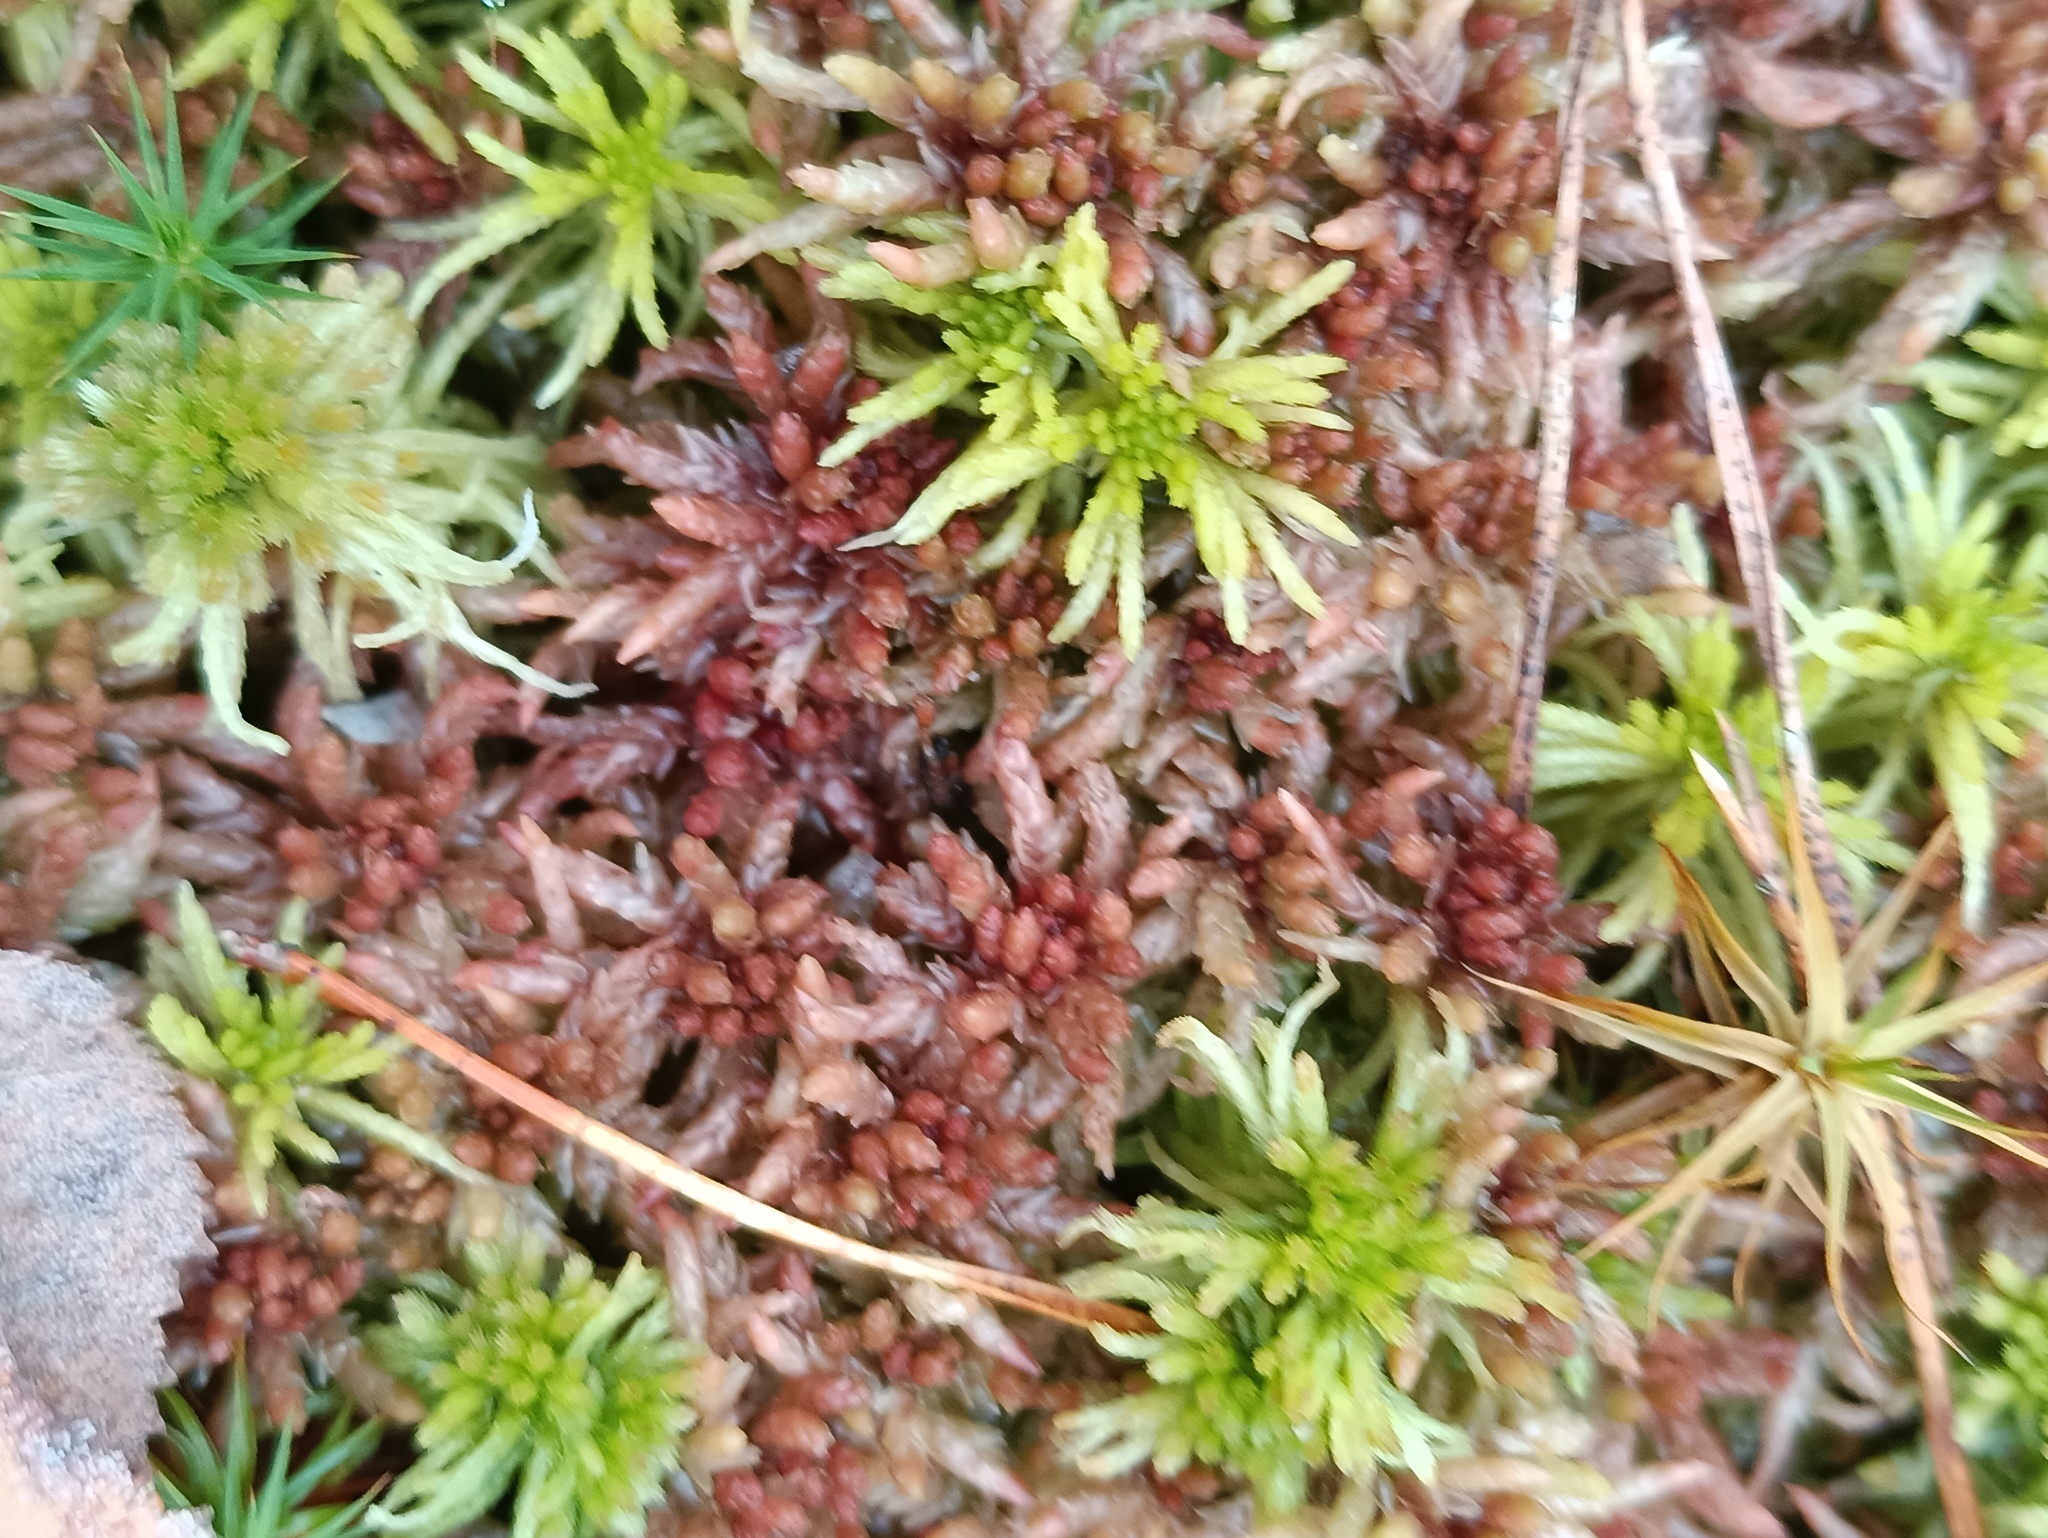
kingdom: Plantae
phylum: Bryophyta
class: Sphagnopsida
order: Sphagnales
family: Sphagnaceae
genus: Sphagnum
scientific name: Sphagnum divinum
